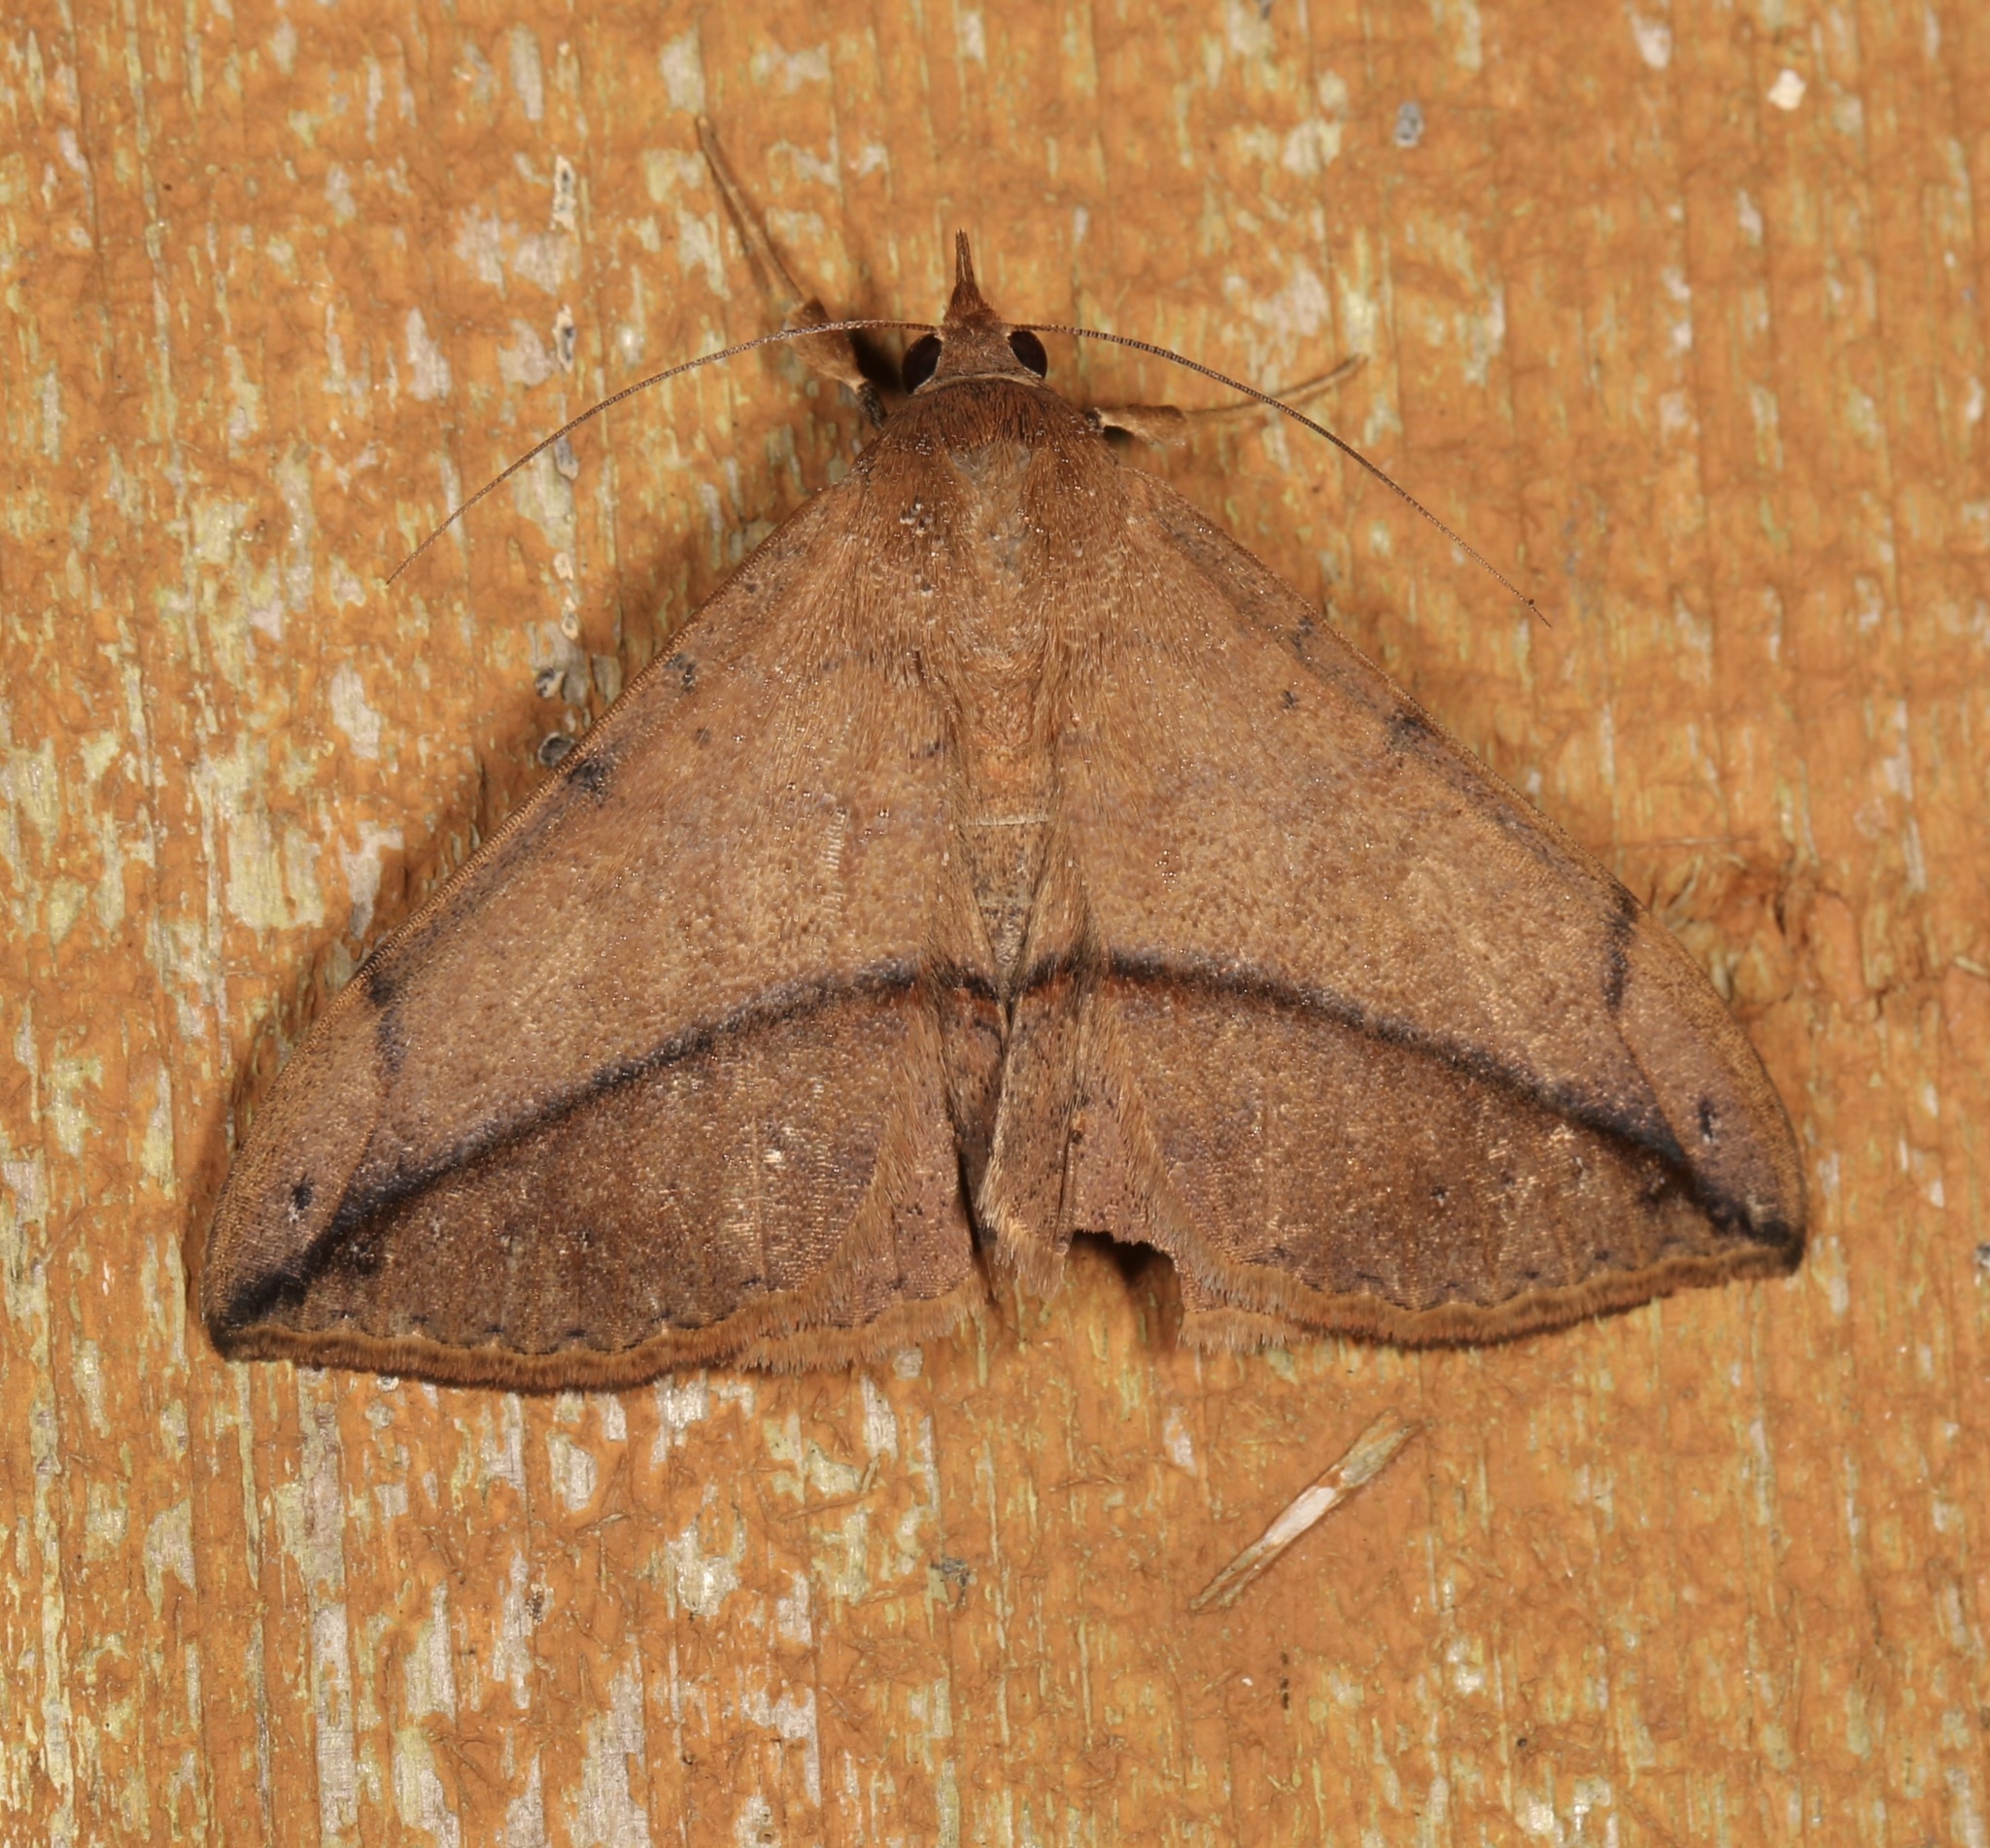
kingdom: Animalia
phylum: Arthropoda
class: Insecta
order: Lepidoptera
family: Erebidae
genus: Anticarsia
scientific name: Anticarsia gemmatalis
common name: Cutworm moth
